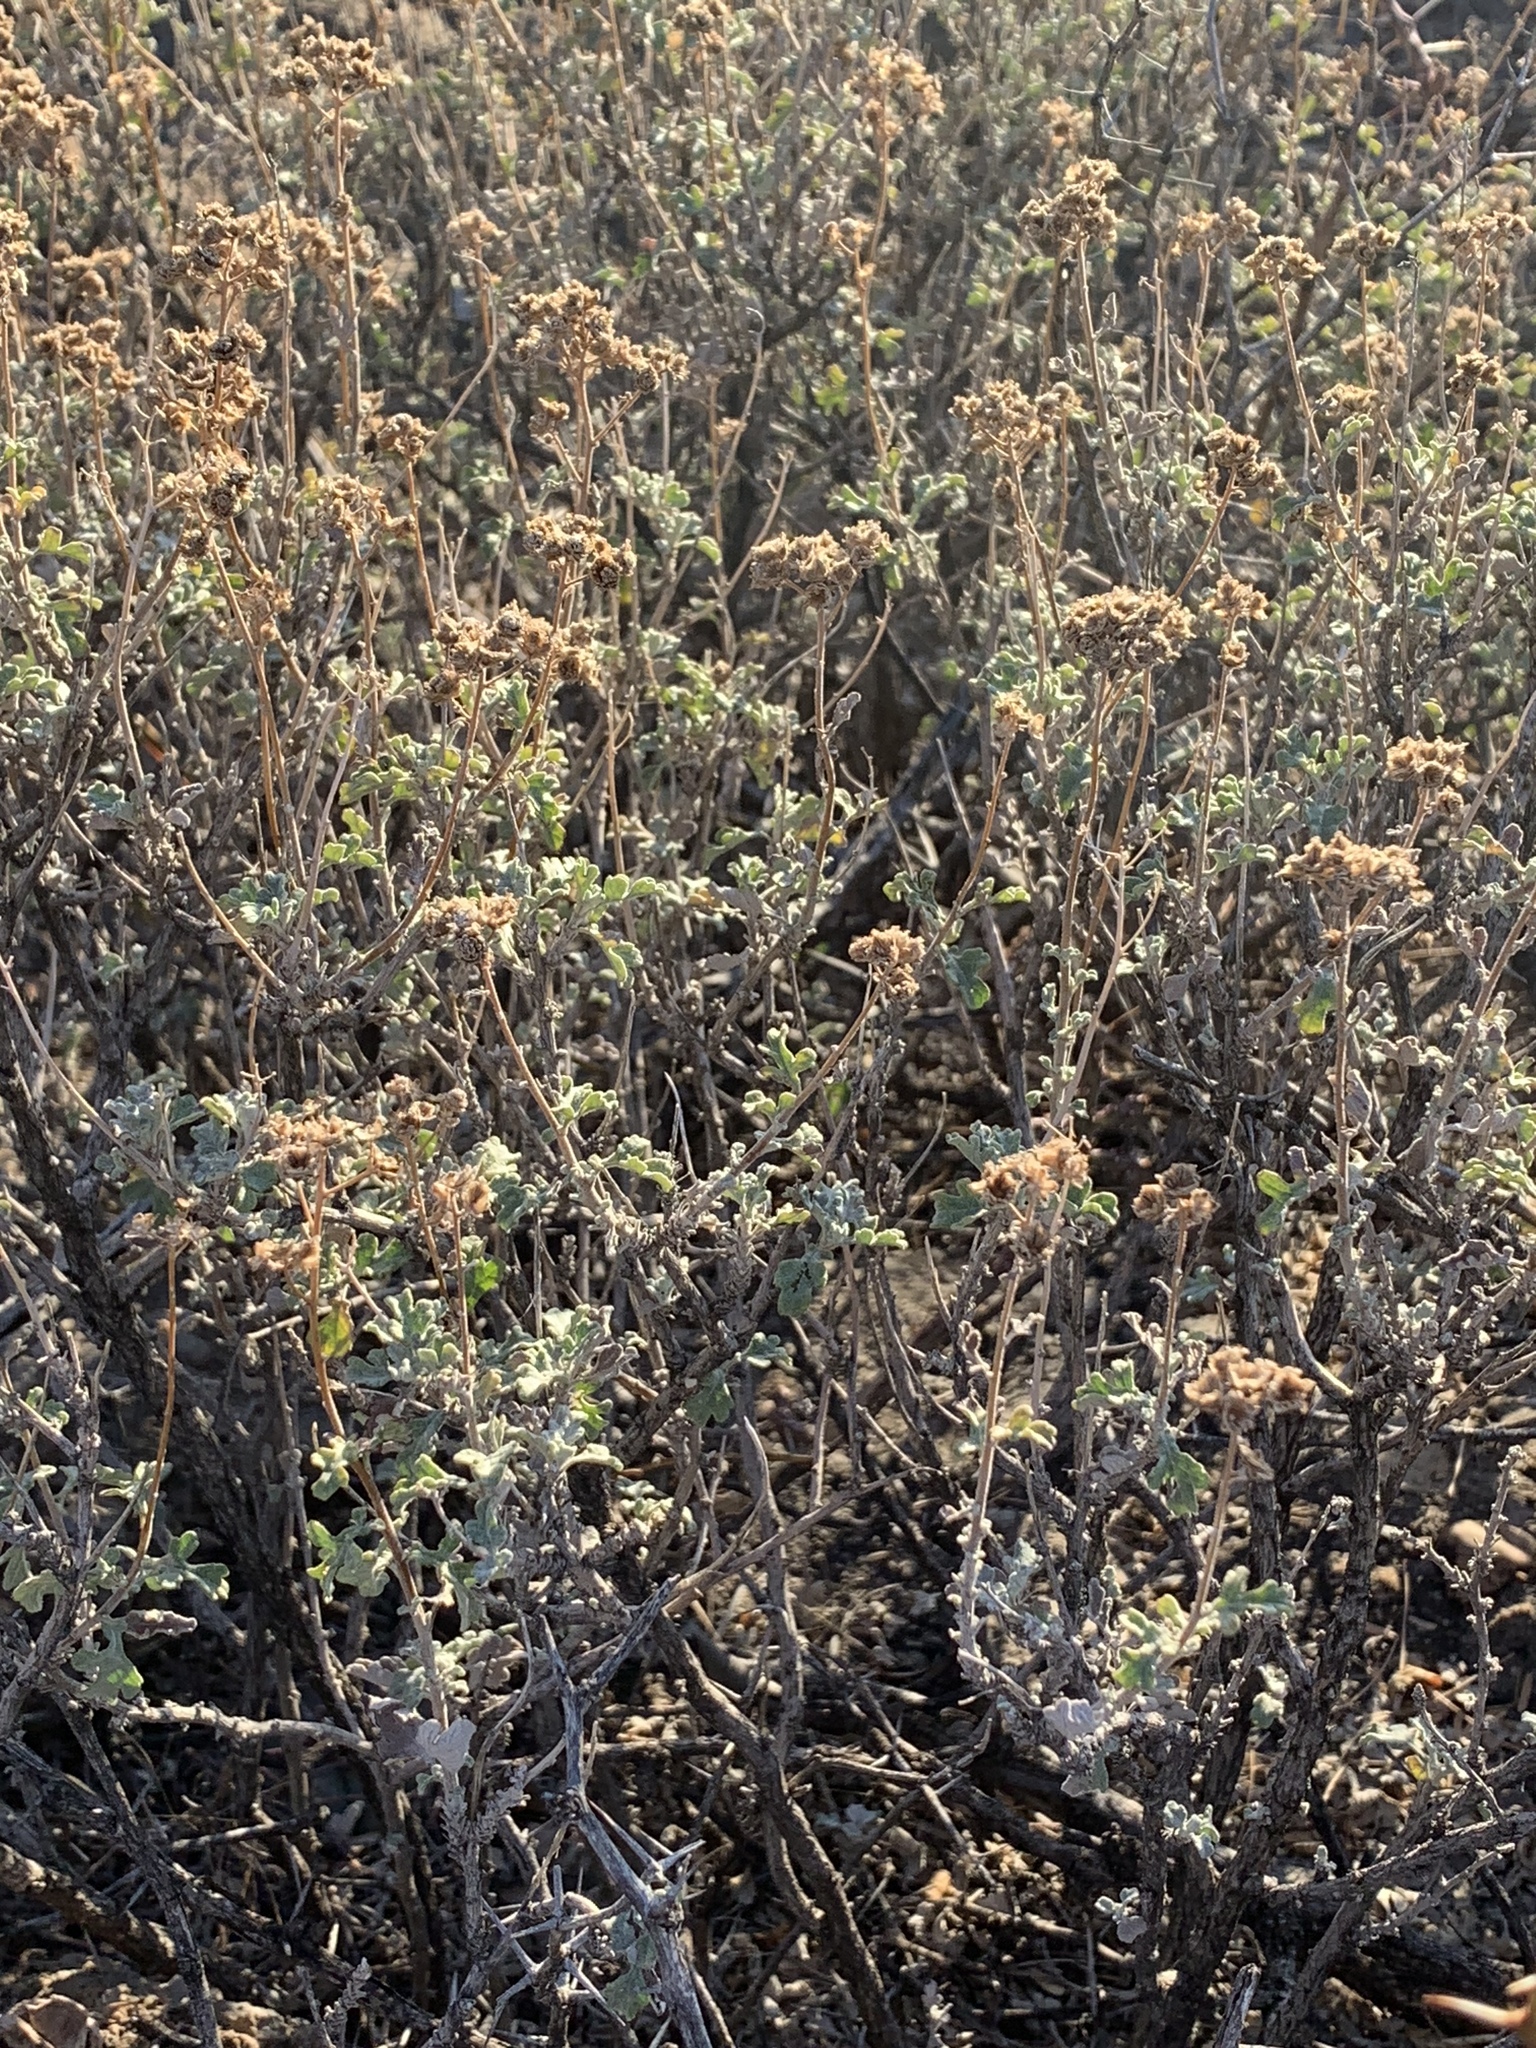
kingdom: Plantae
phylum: Tracheophyta
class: Magnoliopsida
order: Asterales
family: Asteraceae
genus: Parthenium
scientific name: Parthenium incanum
